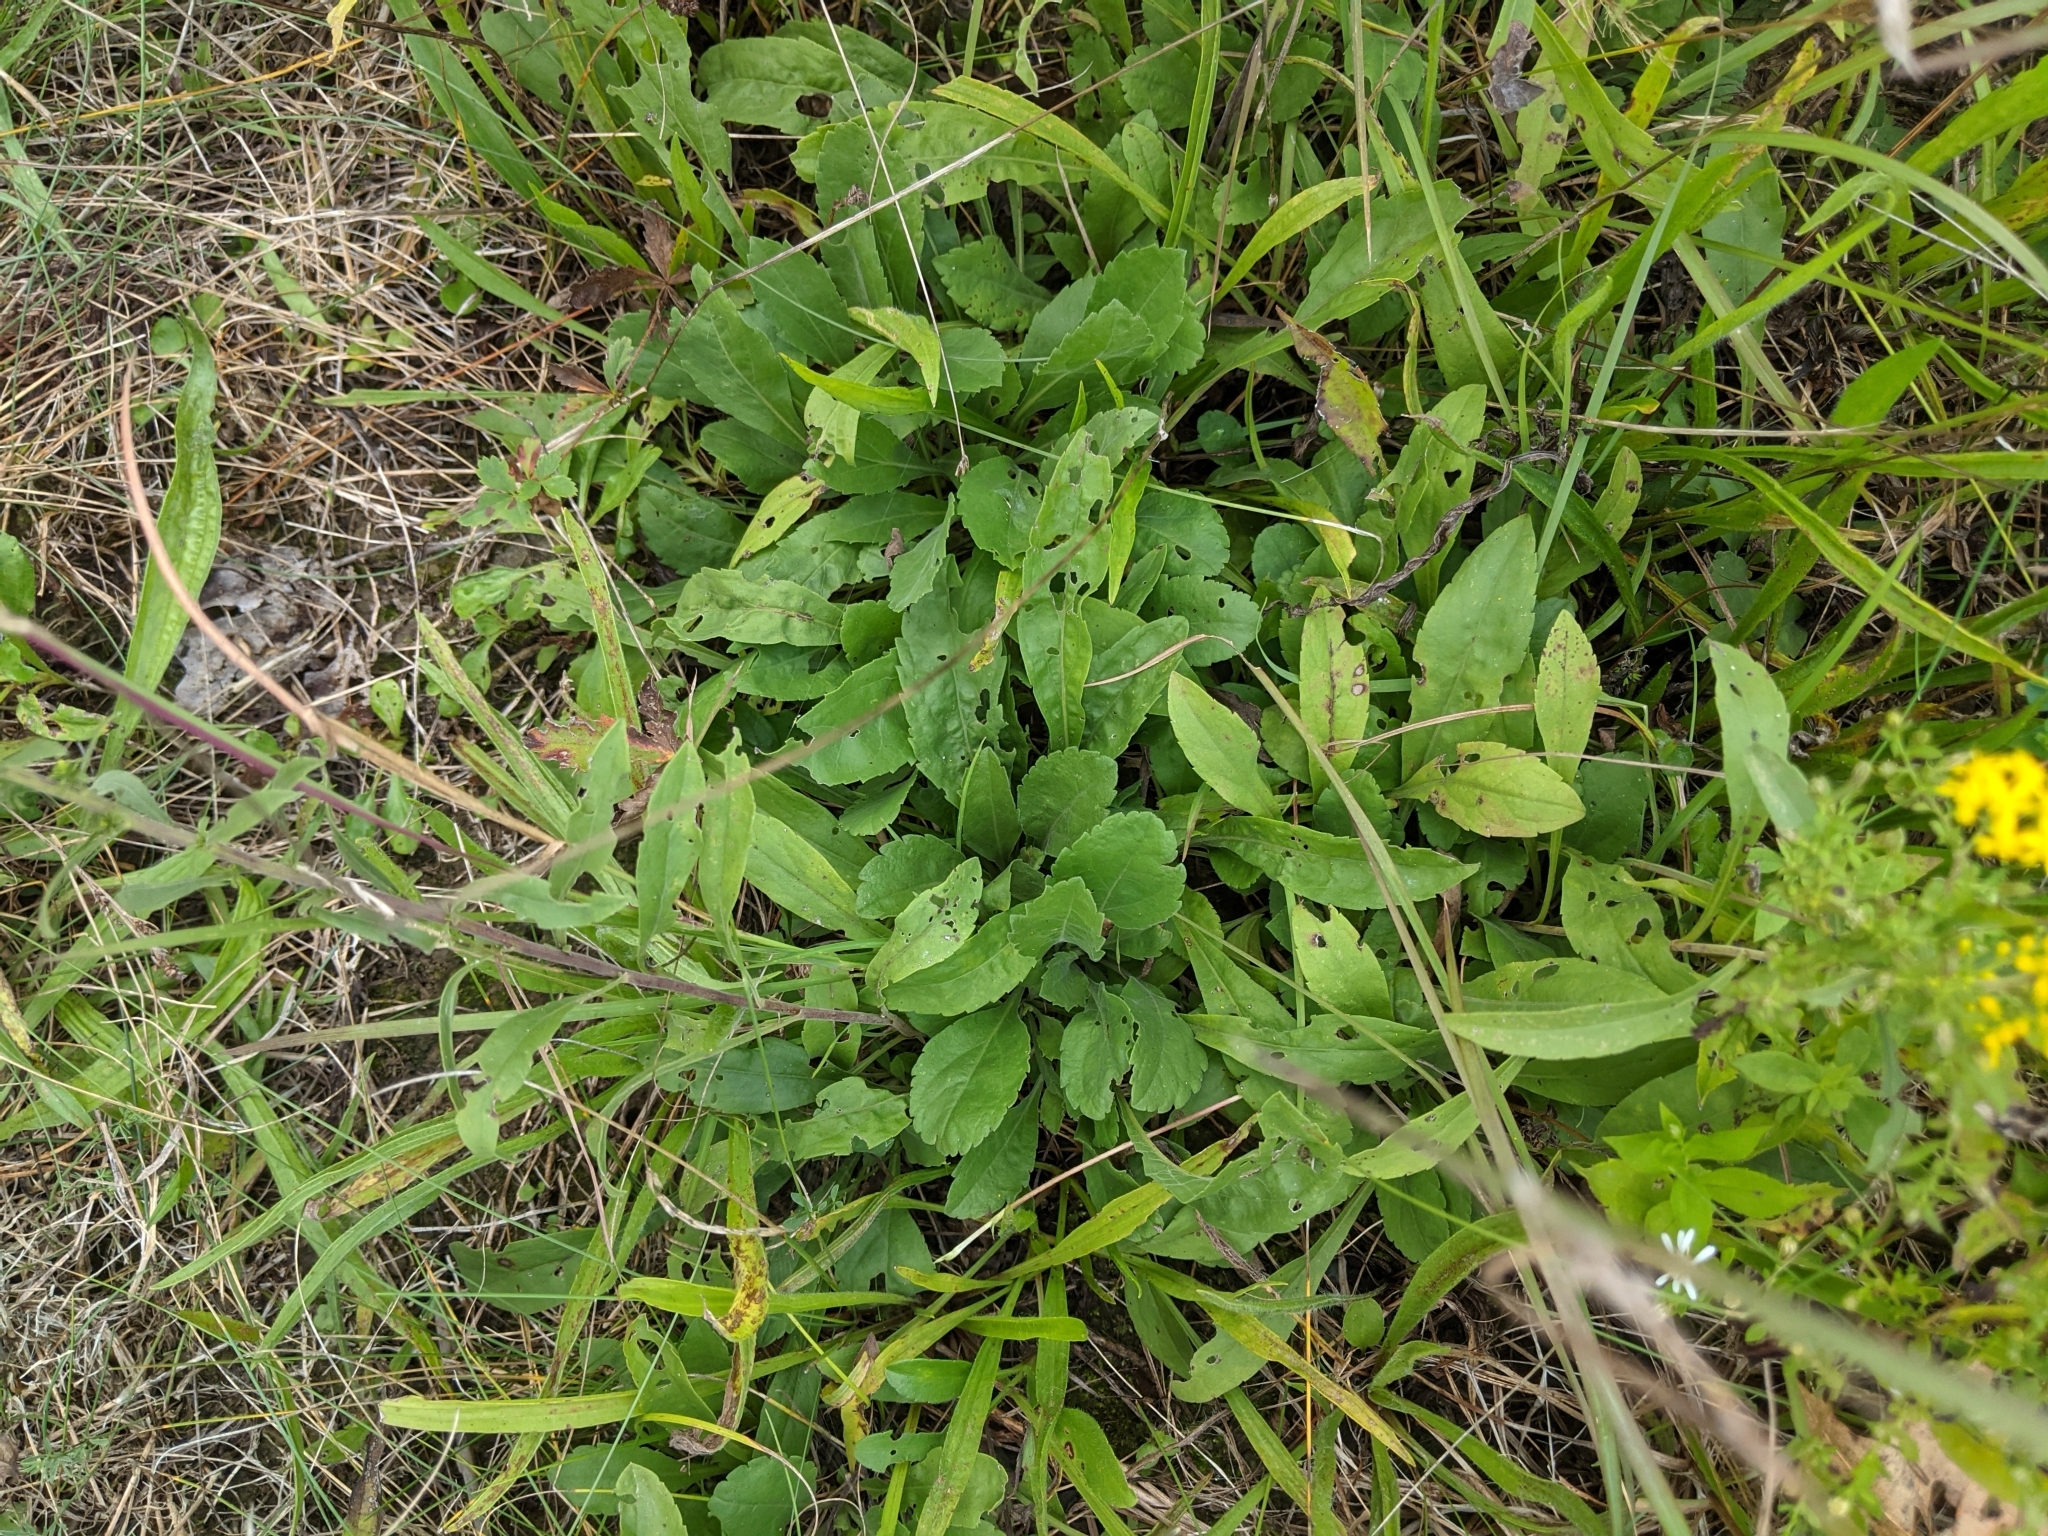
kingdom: Plantae
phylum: Tracheophyta
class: Magnoliopsida
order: Asterales
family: Asteraceae
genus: Solidago
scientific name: Solidago nemoralis
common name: Grey goldenrod
